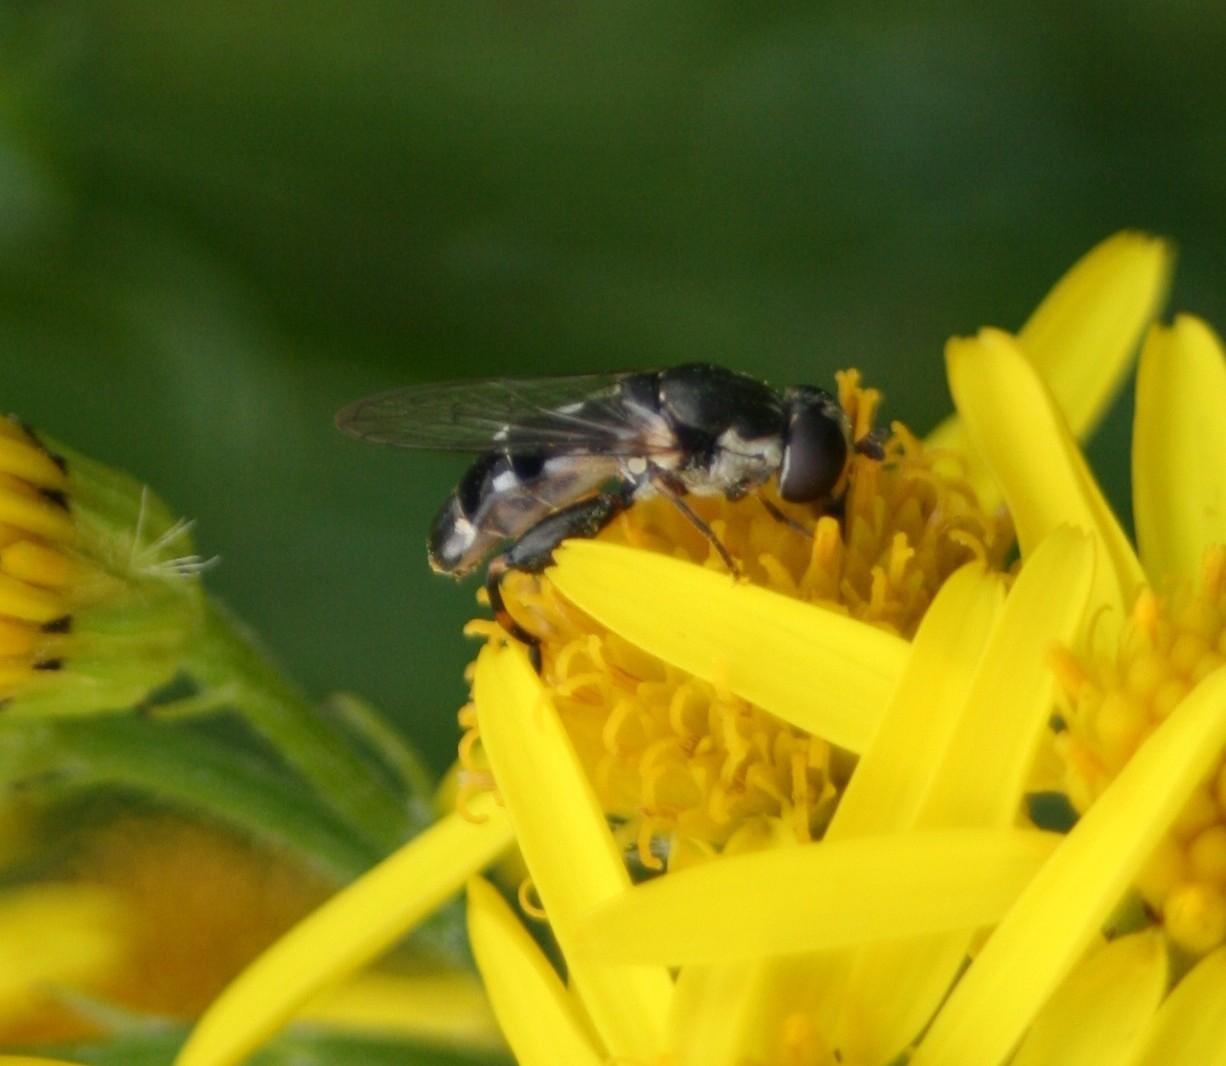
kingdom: Animalia
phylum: Arthropoda
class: Insecta
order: Diptera
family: Syrphidae
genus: Syritta
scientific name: Syritta pipiens
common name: Hover fly
